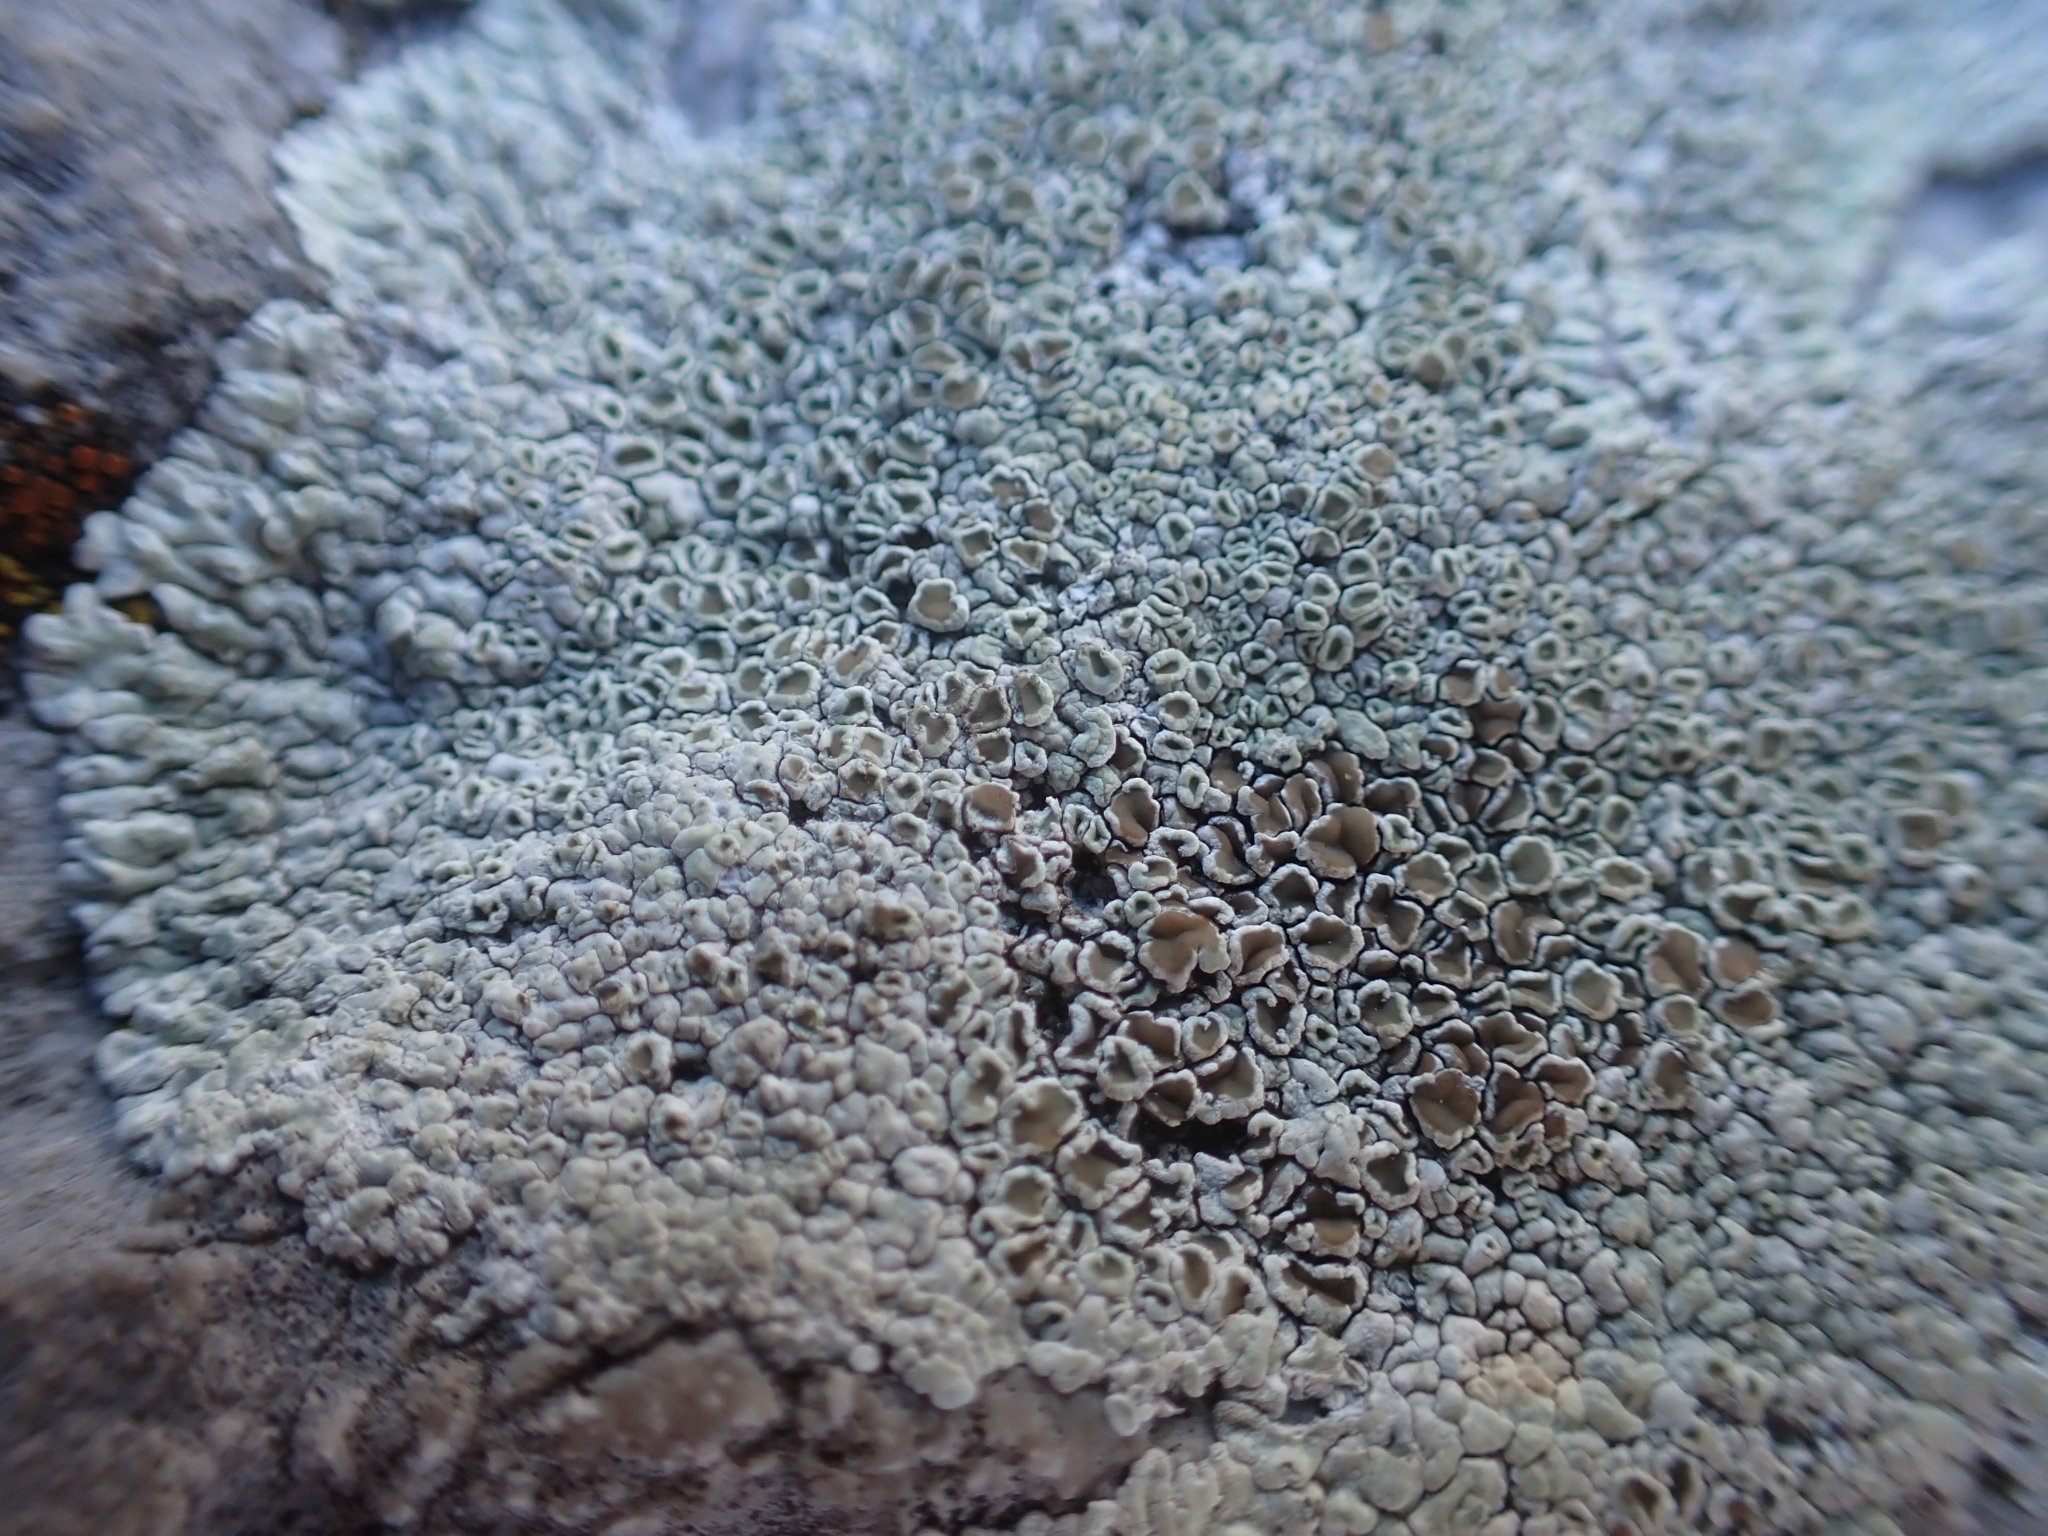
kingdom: Fungi
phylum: Ascomycota
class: Lecanoromycetes
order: Lecanorales
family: Lecanoraceae
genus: Protoparmeliopsis
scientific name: Protoparmeliopsis muralis
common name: Stonewall rim lichen
